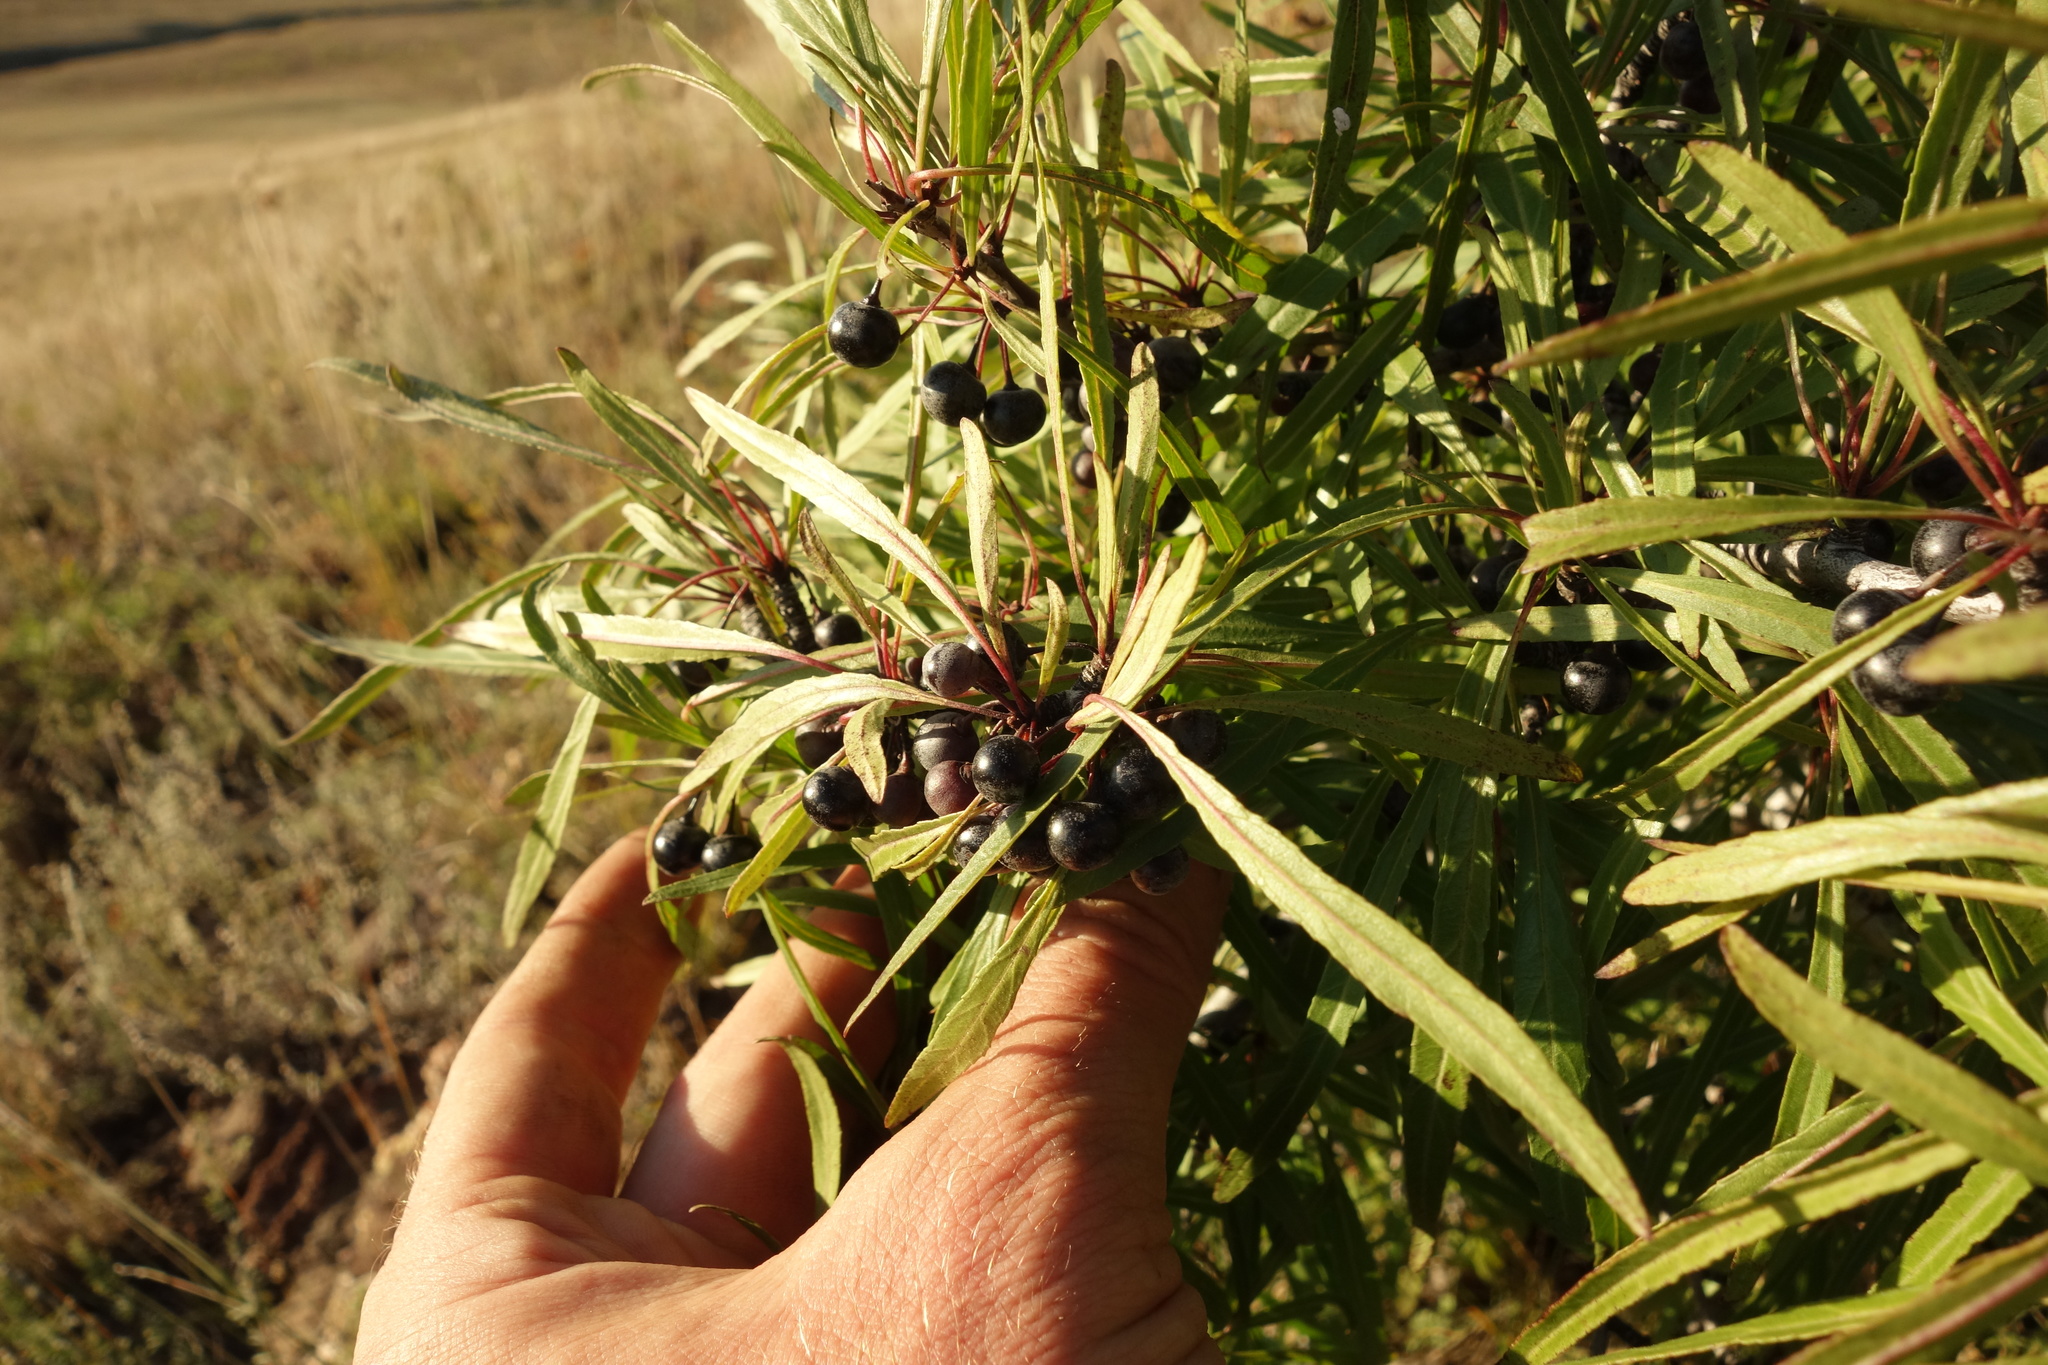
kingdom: Plantae
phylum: Tracheophyta
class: Magnoliopsida
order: Rosales
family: Rhamnaceae
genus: Rhamnus
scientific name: Rhamnus erythroxylum
